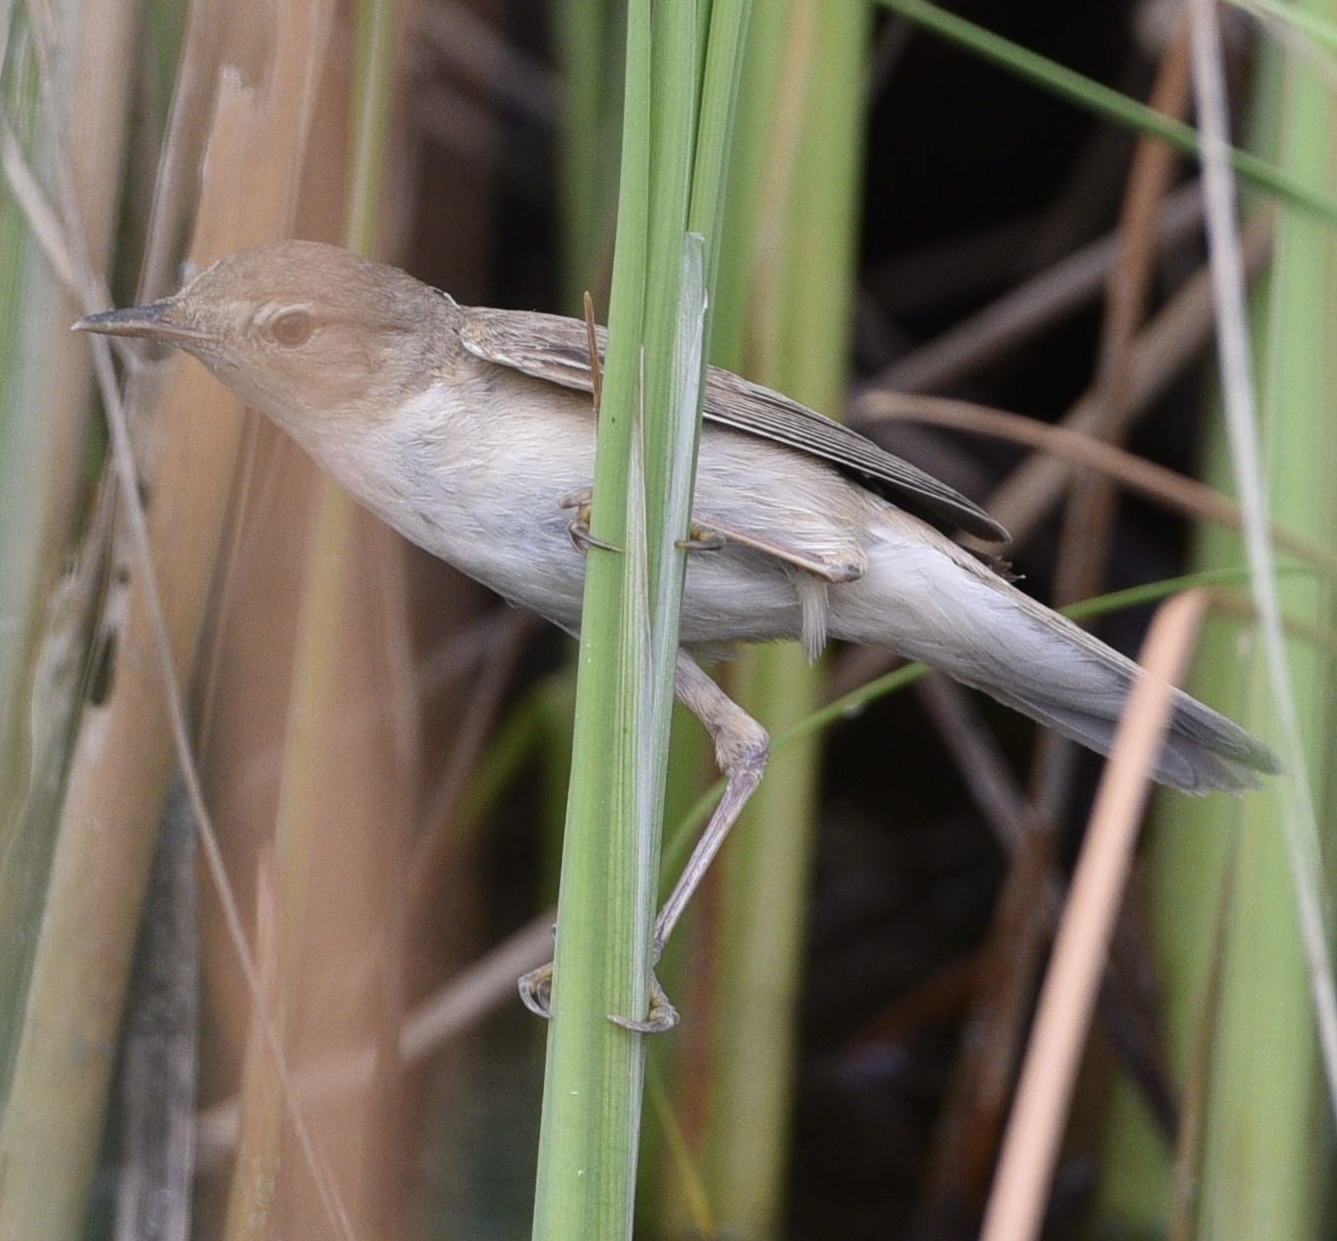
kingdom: Animalia
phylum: Chordata
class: Aves
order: Passeriformes
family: Acrocephalidae
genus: Acrocephalus
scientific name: Acrocephalus palustris
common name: Marsh warbler
